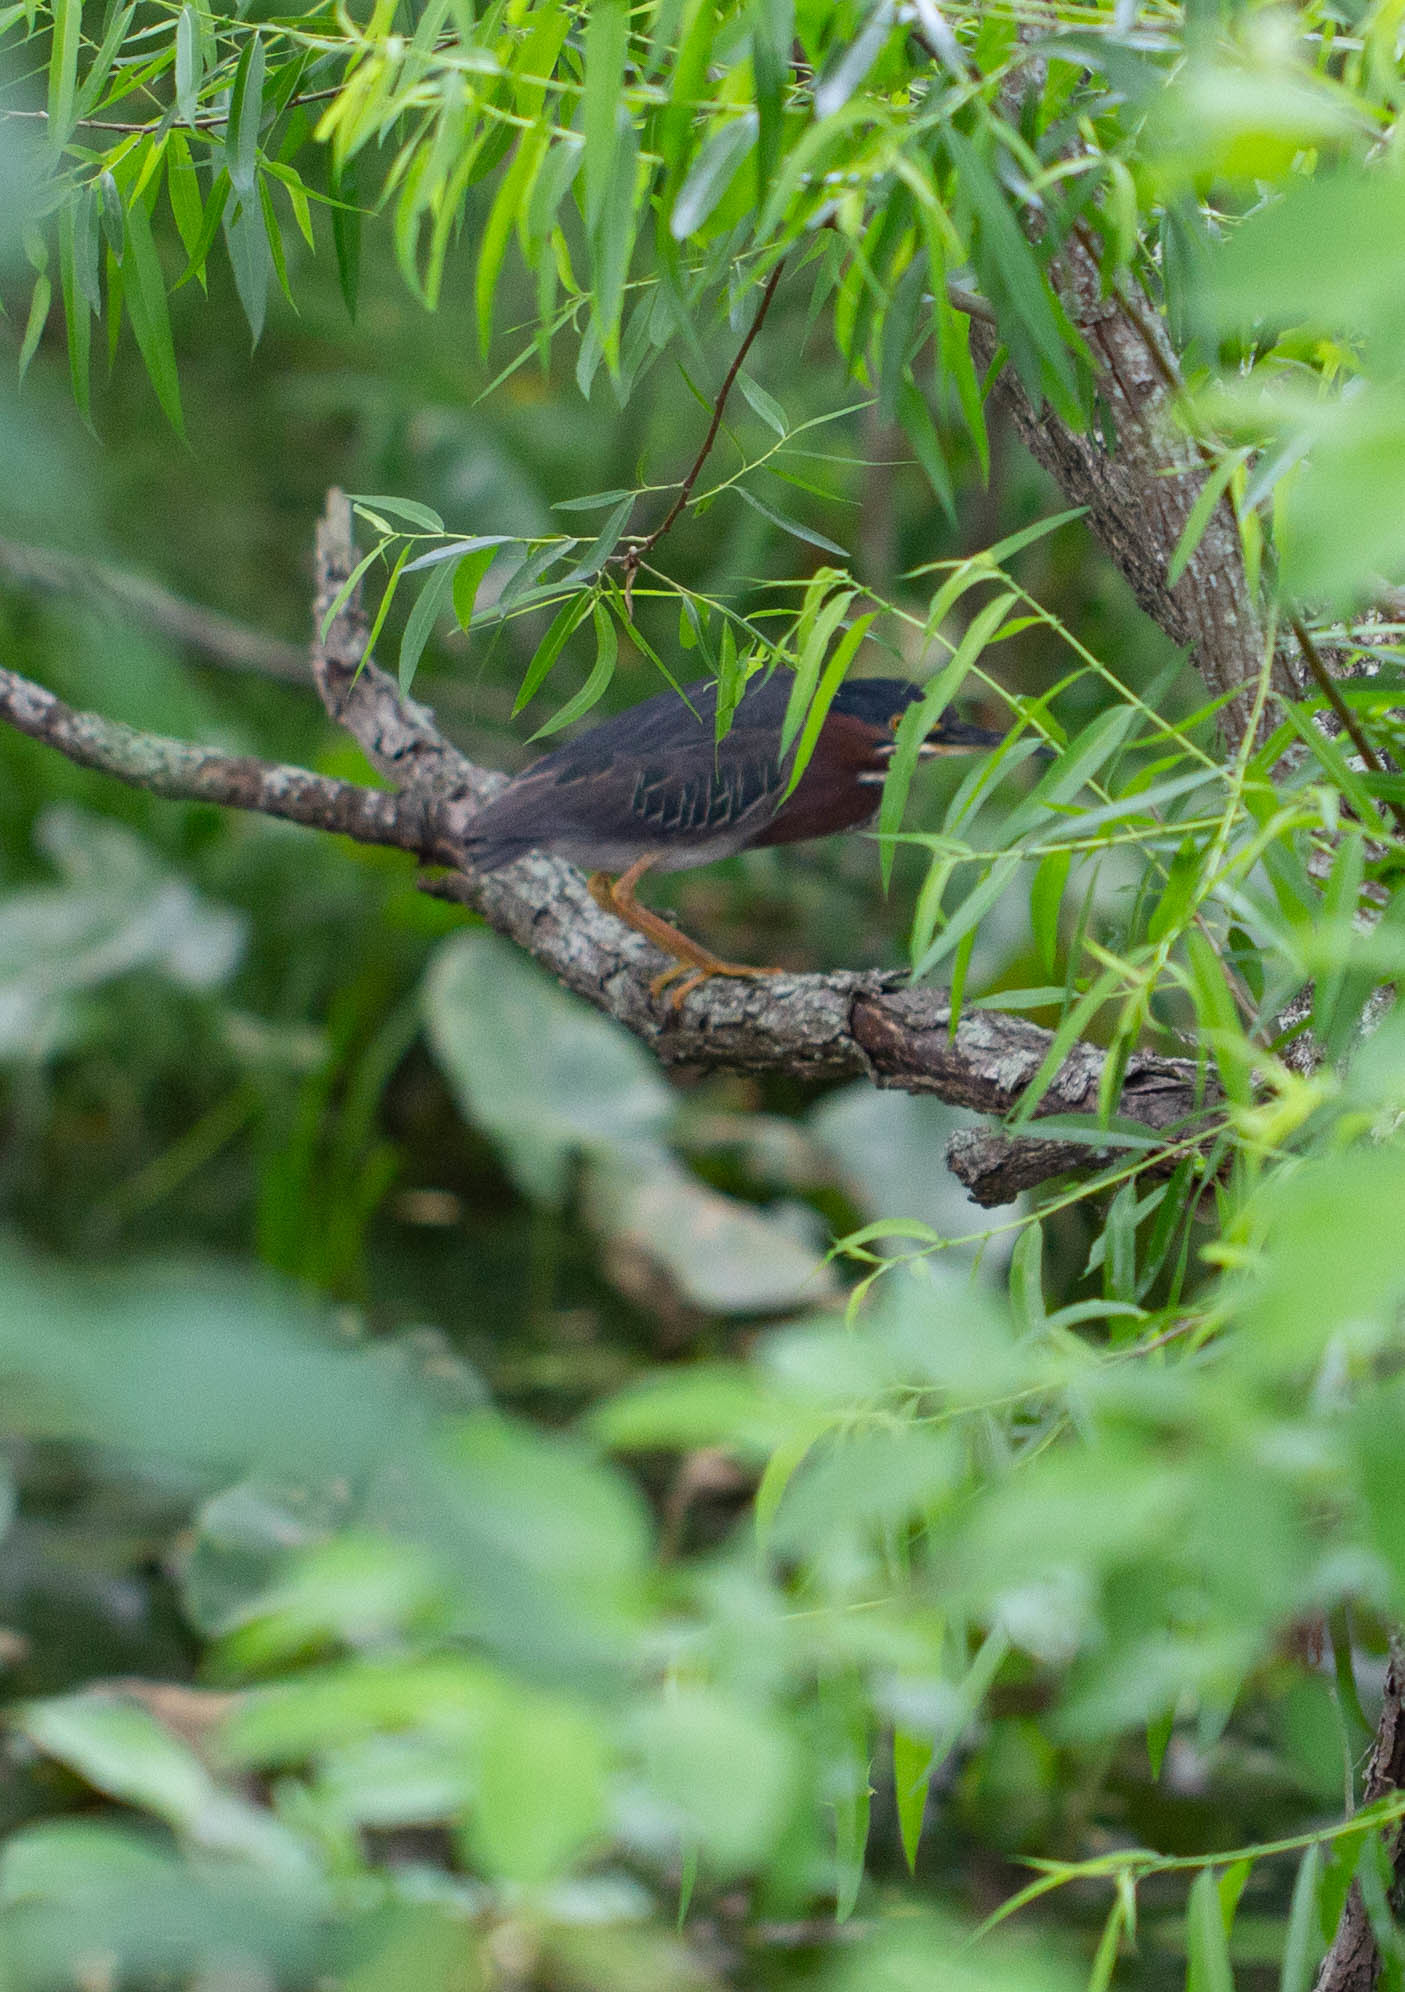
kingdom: Animalia
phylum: Chordata
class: Aves
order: Pelecaniformes
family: Ardeidae
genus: Butorides
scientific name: Butorides virescens
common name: Green heron
